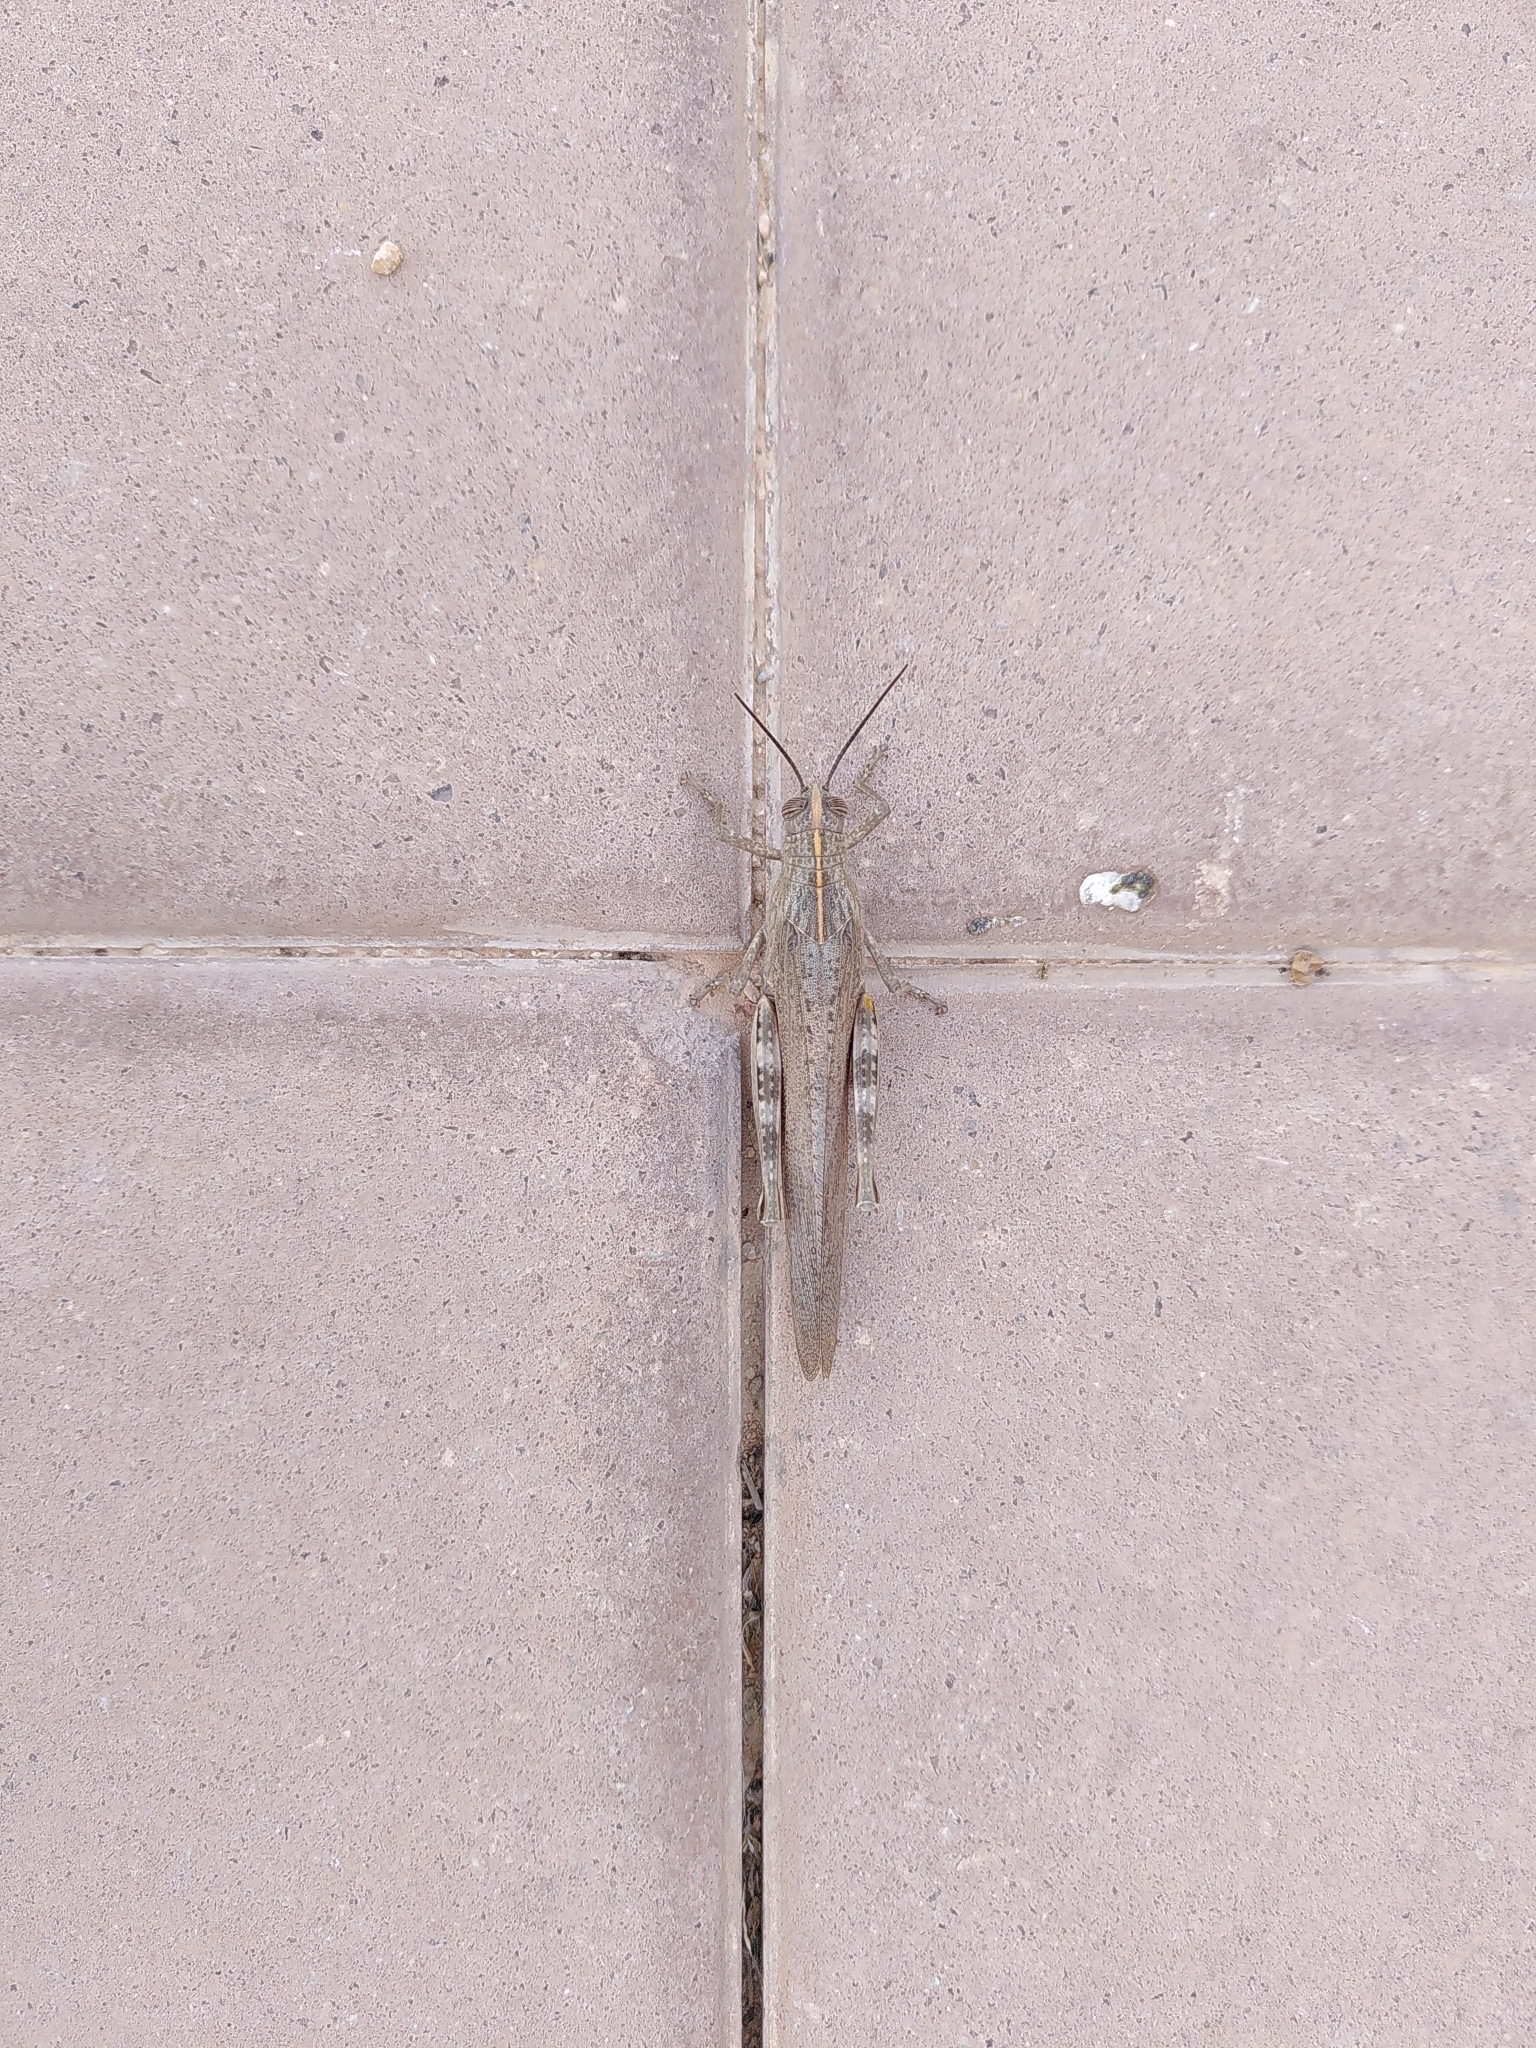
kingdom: Animalia
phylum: Arthropoda
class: Insecta
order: Orthoptera
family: Acrididae
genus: Anacridium
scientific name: Anacridium aegyptium
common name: Egyptian grasshopper
